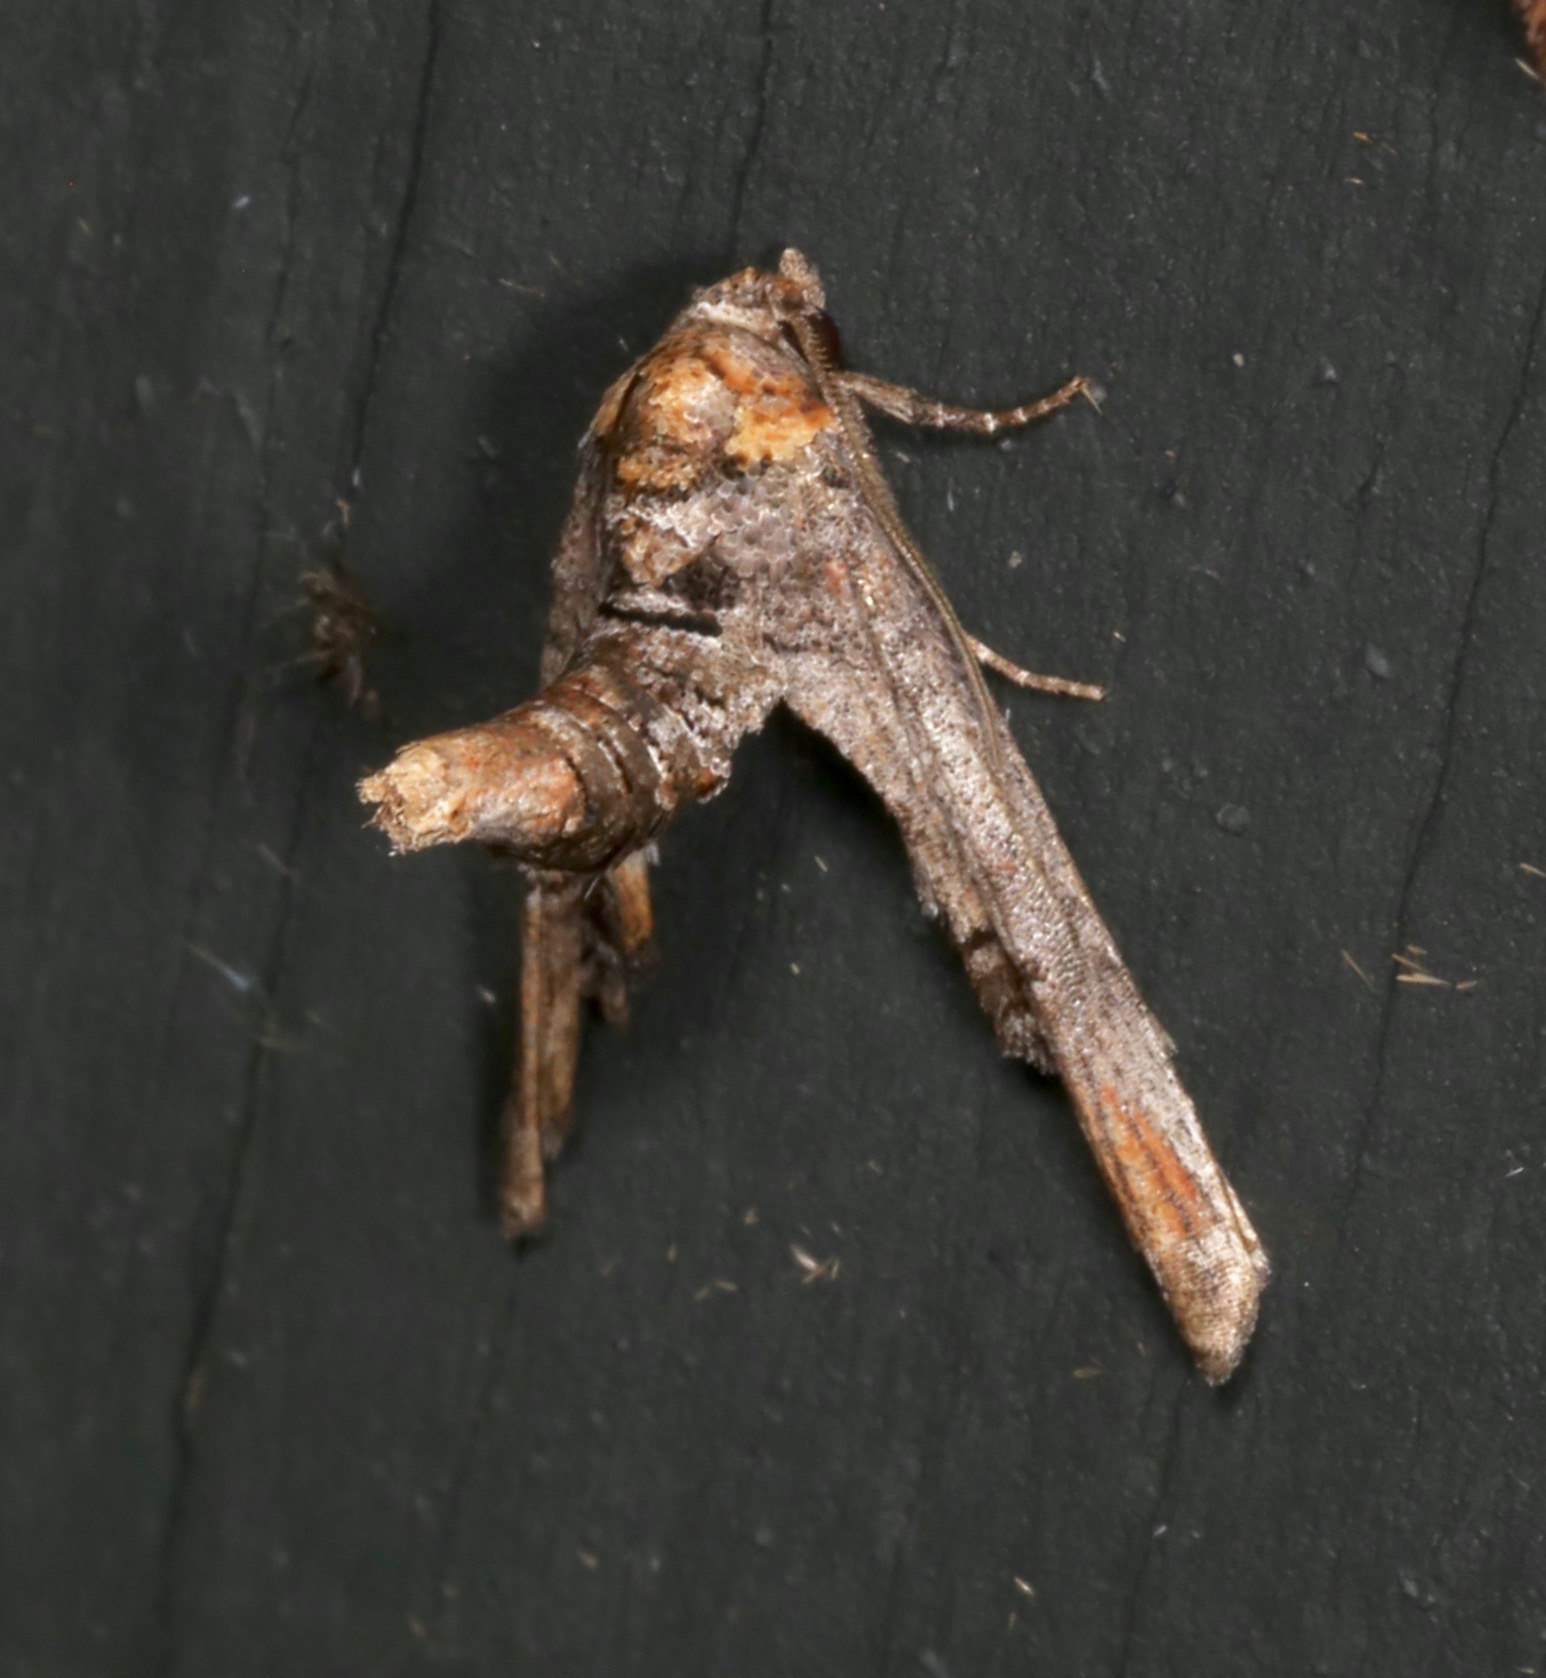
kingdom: Animalia
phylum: Arthropoda
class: Insecta
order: Lepidoptera
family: Euteliidae
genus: Marathyssa
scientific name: Marathyssa inficita
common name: Dark marathyssa moth
